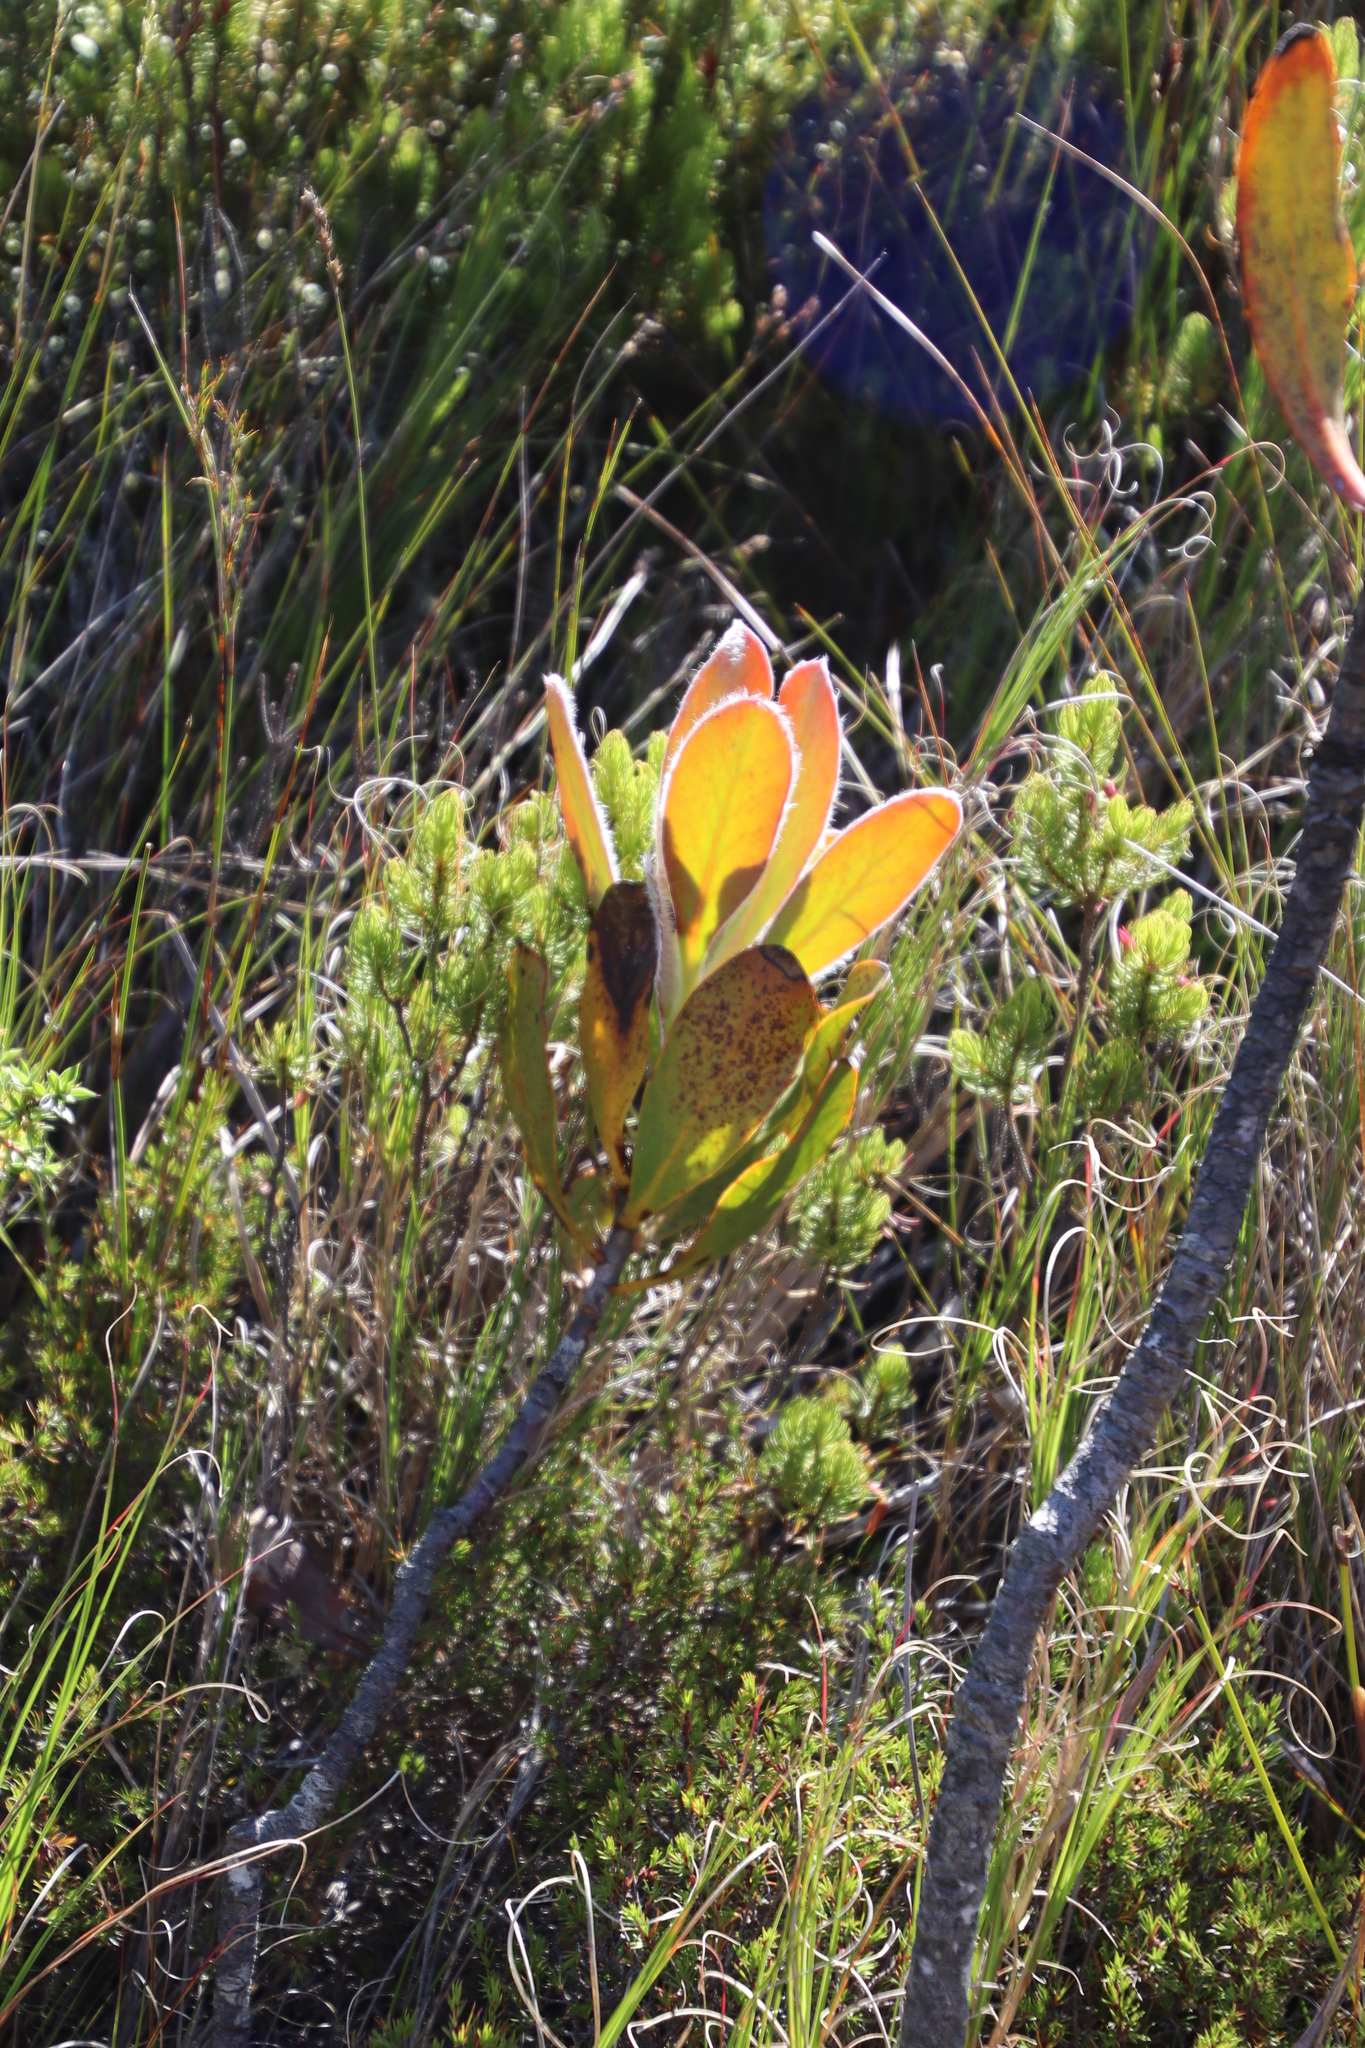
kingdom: Plantae
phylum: Tracheophyta
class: Magnoliopsida
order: Proteales
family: Proteaceae
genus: Protea
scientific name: Protea speciosa
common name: Brown-beard sugarbush
